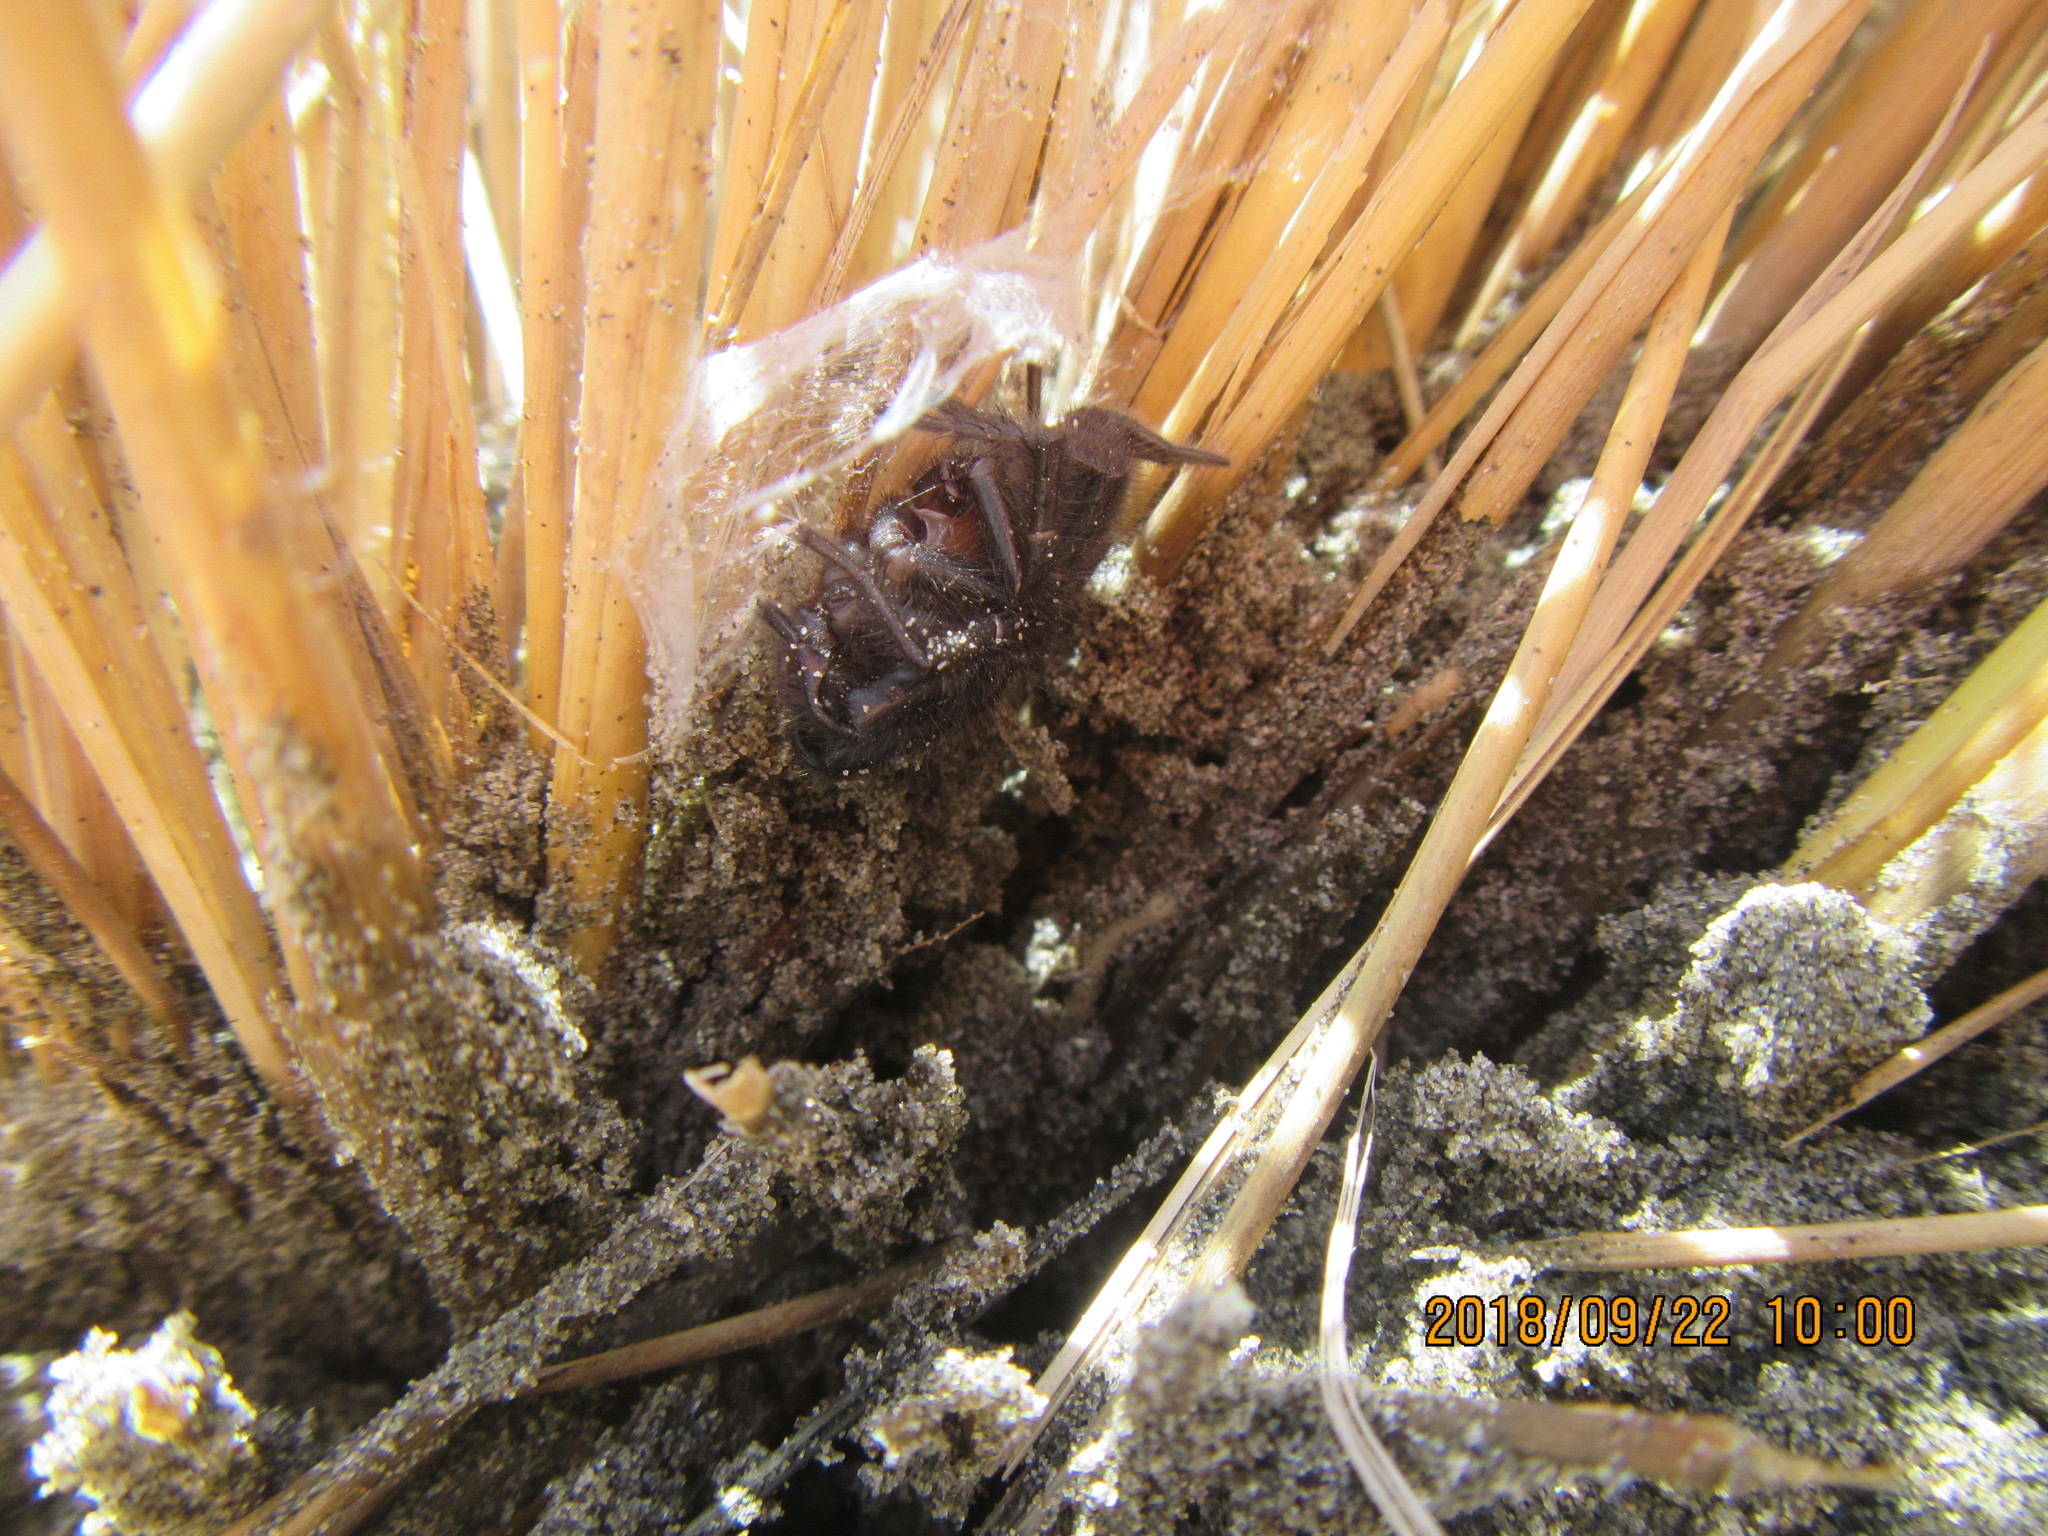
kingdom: Animalia
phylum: Arthropoda
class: Arachnida
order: Araneae
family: Porrhothelidae
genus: Porrhothele
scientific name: Porrhothele antipodiana
